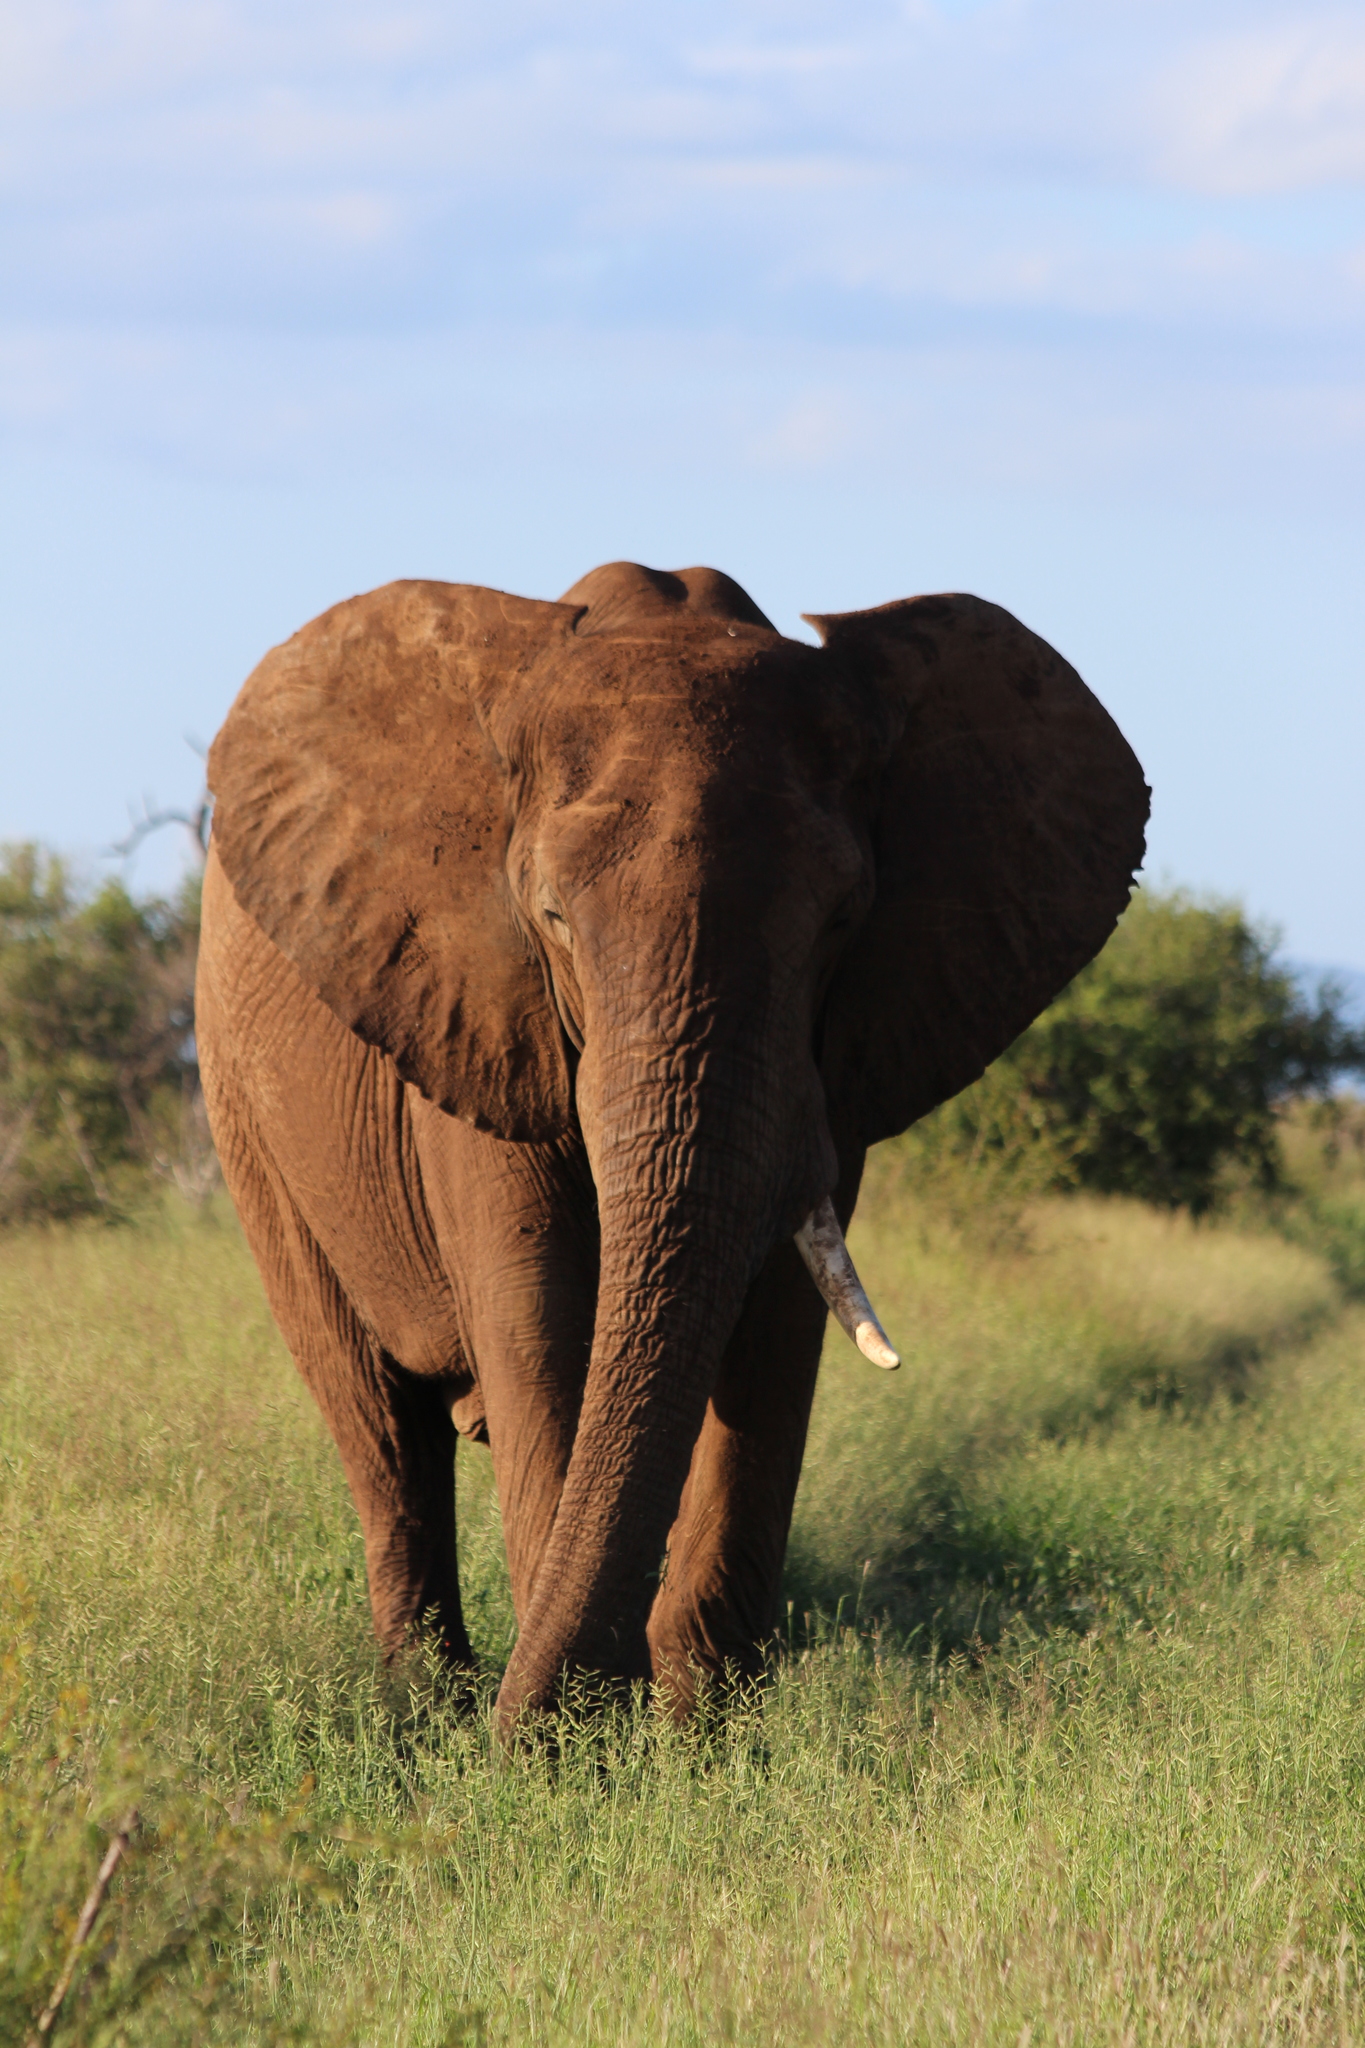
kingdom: Animalia
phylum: Chordata
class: Mammalia
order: Proboscidea
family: Elephantidae
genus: Loxodonta
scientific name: Loxodonta africana
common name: African elephant
